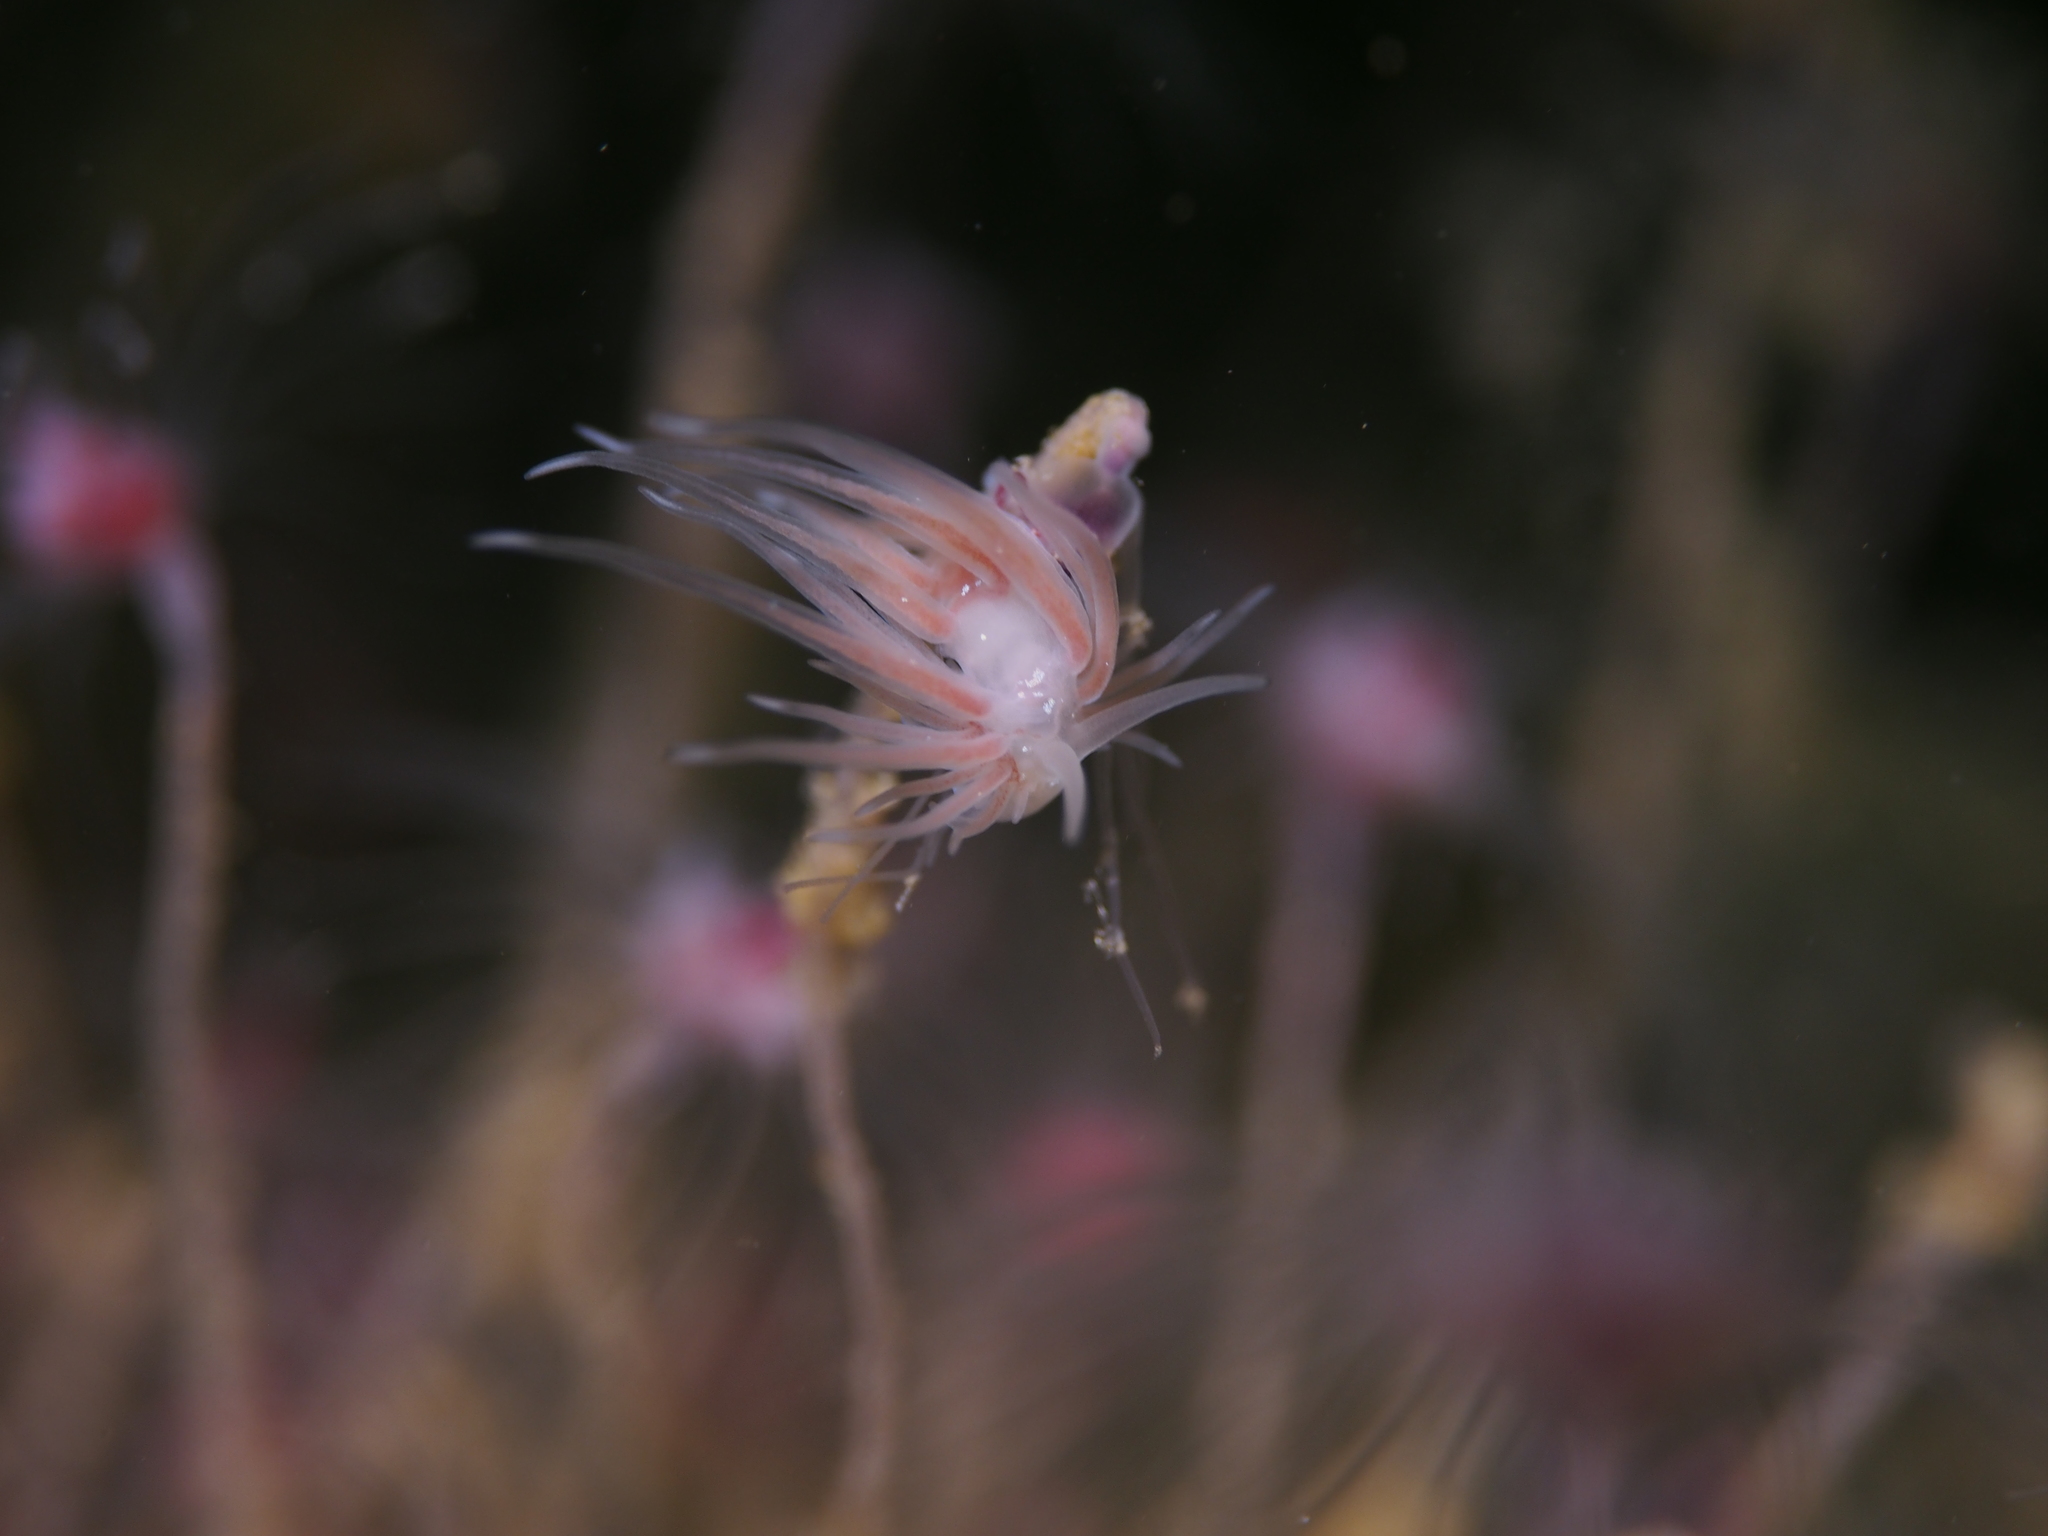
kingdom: Animalia
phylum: Mollusca
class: Gastropoda
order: Nudibranchia
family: Cumanotidae
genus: Cumanotus
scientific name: Cumanotus beaumonti
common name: Polyp aeolis
